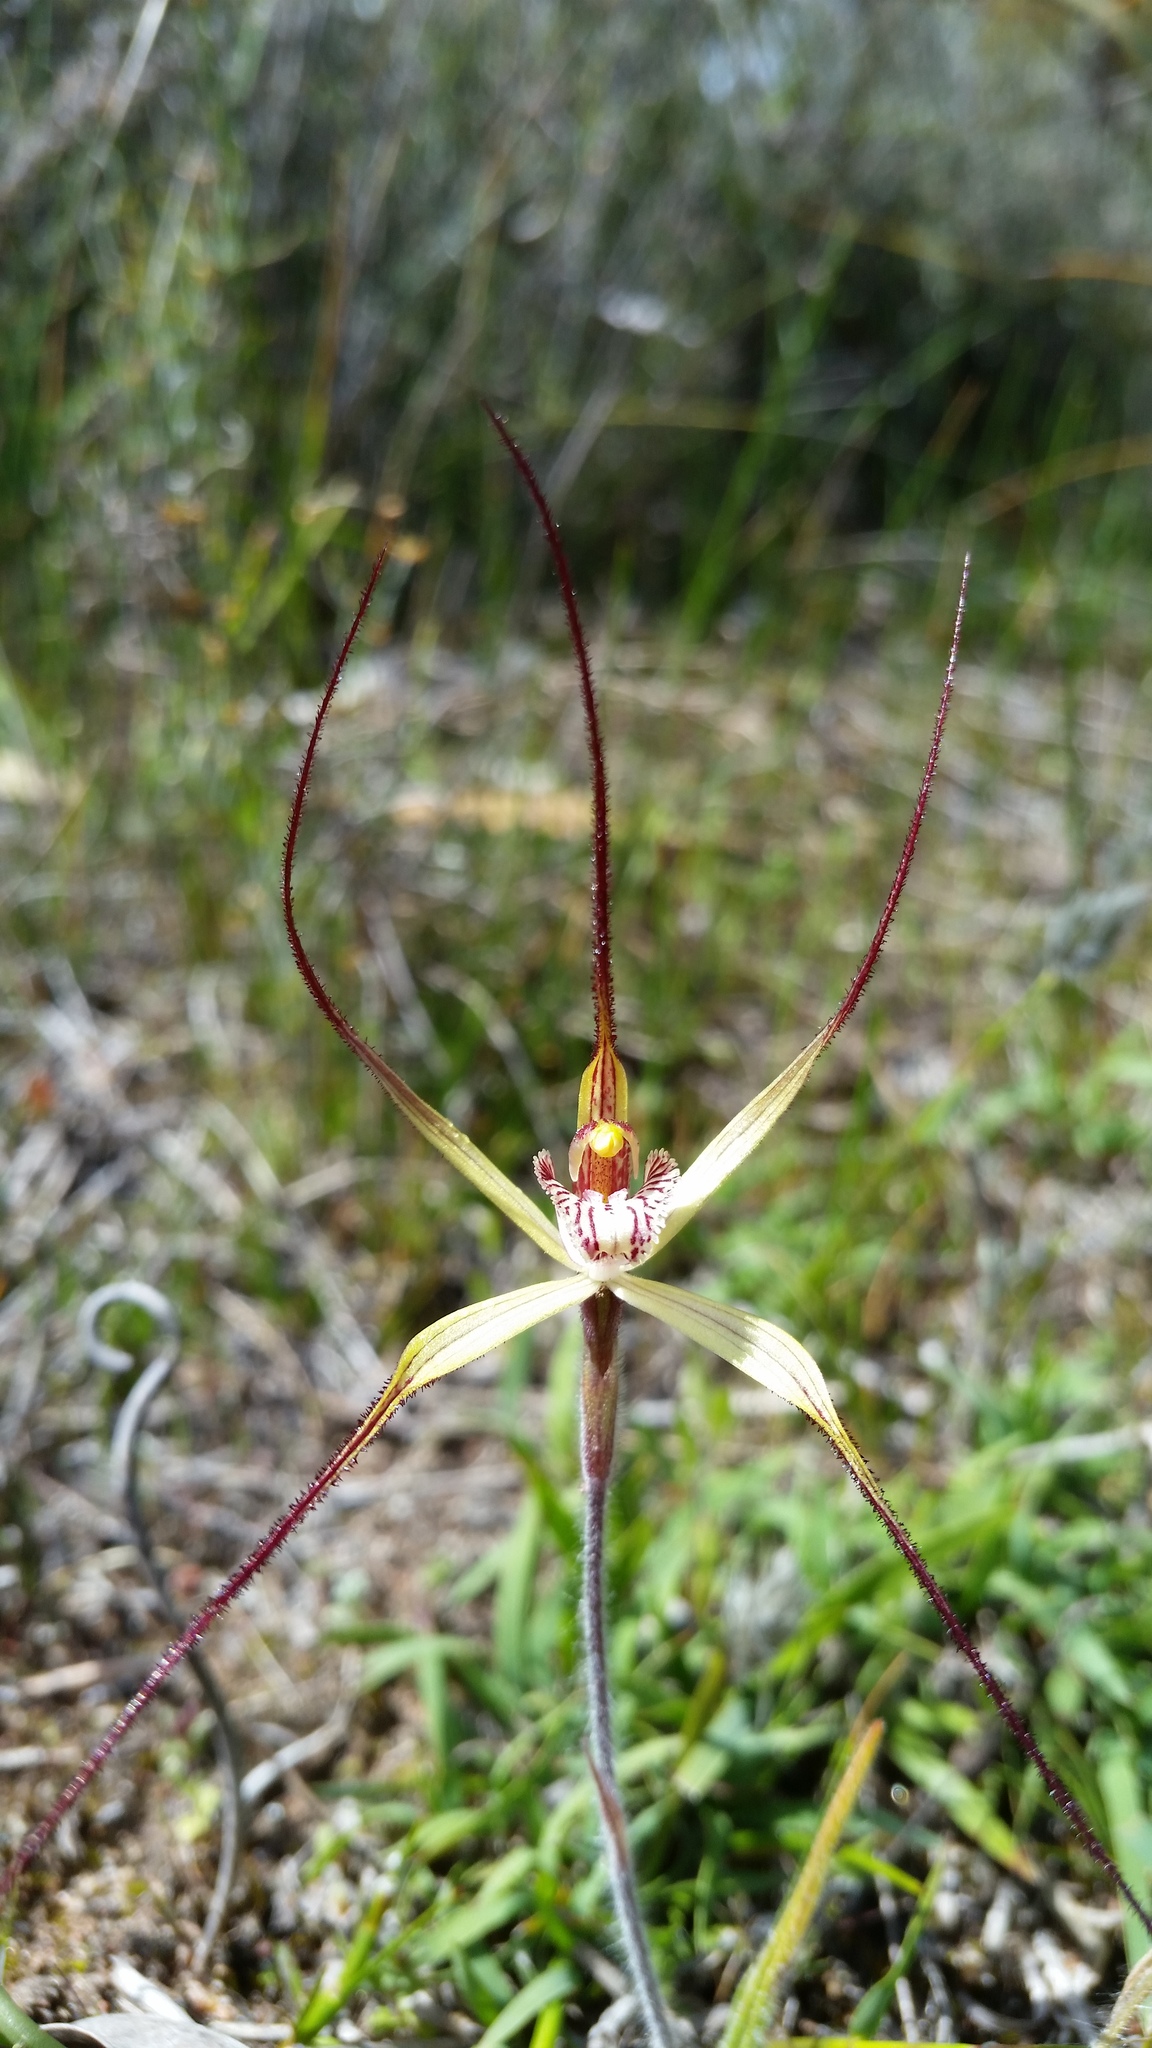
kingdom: Plantae
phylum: Tracheophyta
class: Liliopsida
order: Asparagales
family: Orchidaceae
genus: Caladenia
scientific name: Caladenia straminichila
